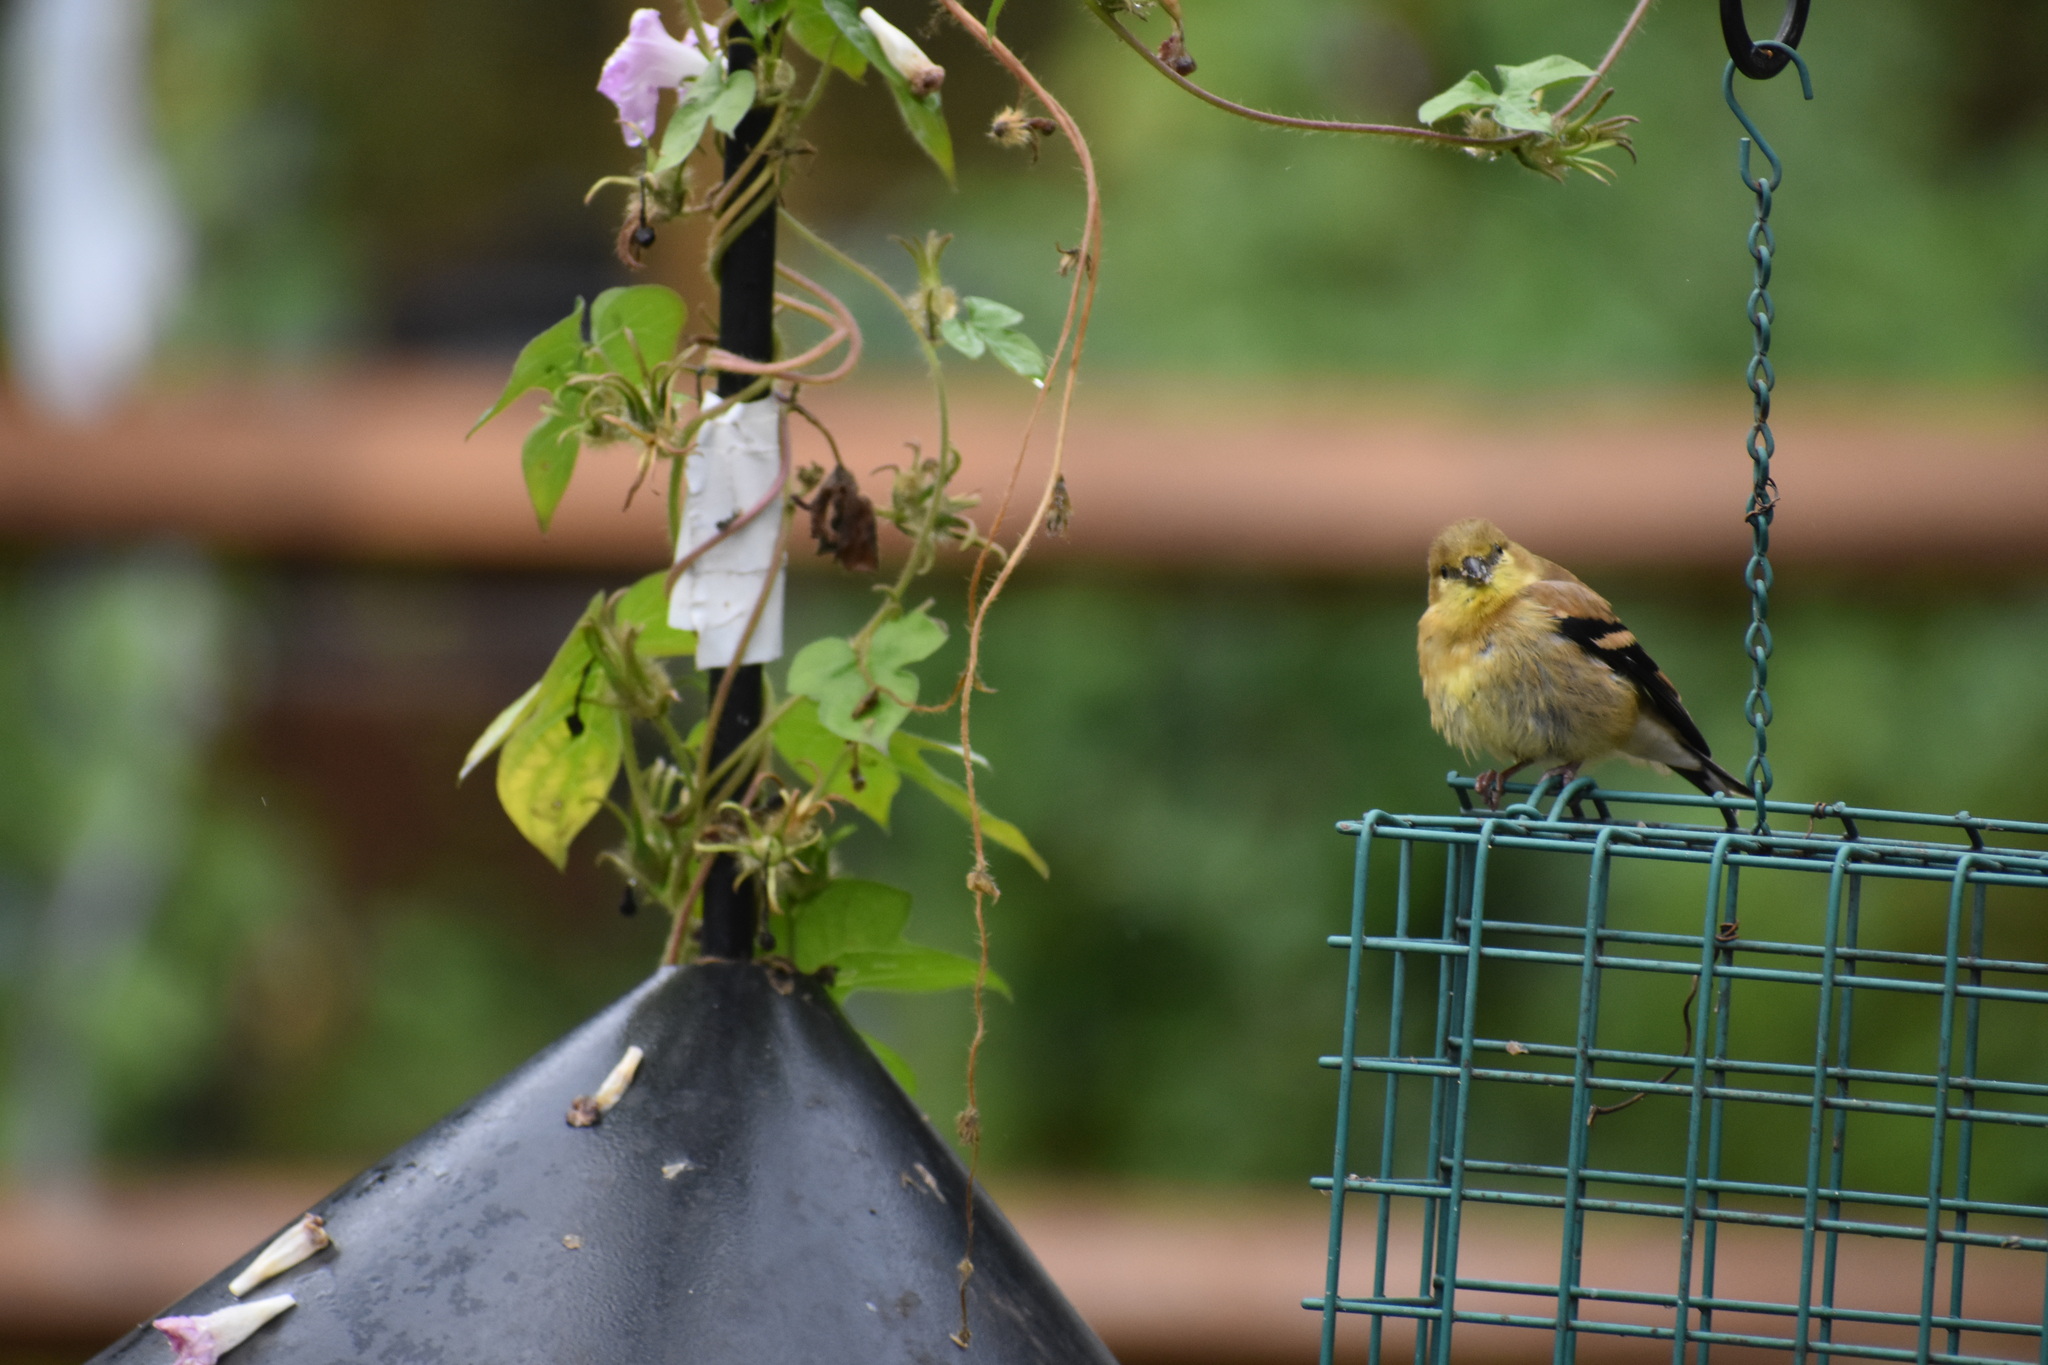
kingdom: Animalia
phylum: Chordata
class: Aves
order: Passeriformes
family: Fringillidae
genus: Spinus
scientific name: Spinus tristis
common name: American goldfinch
